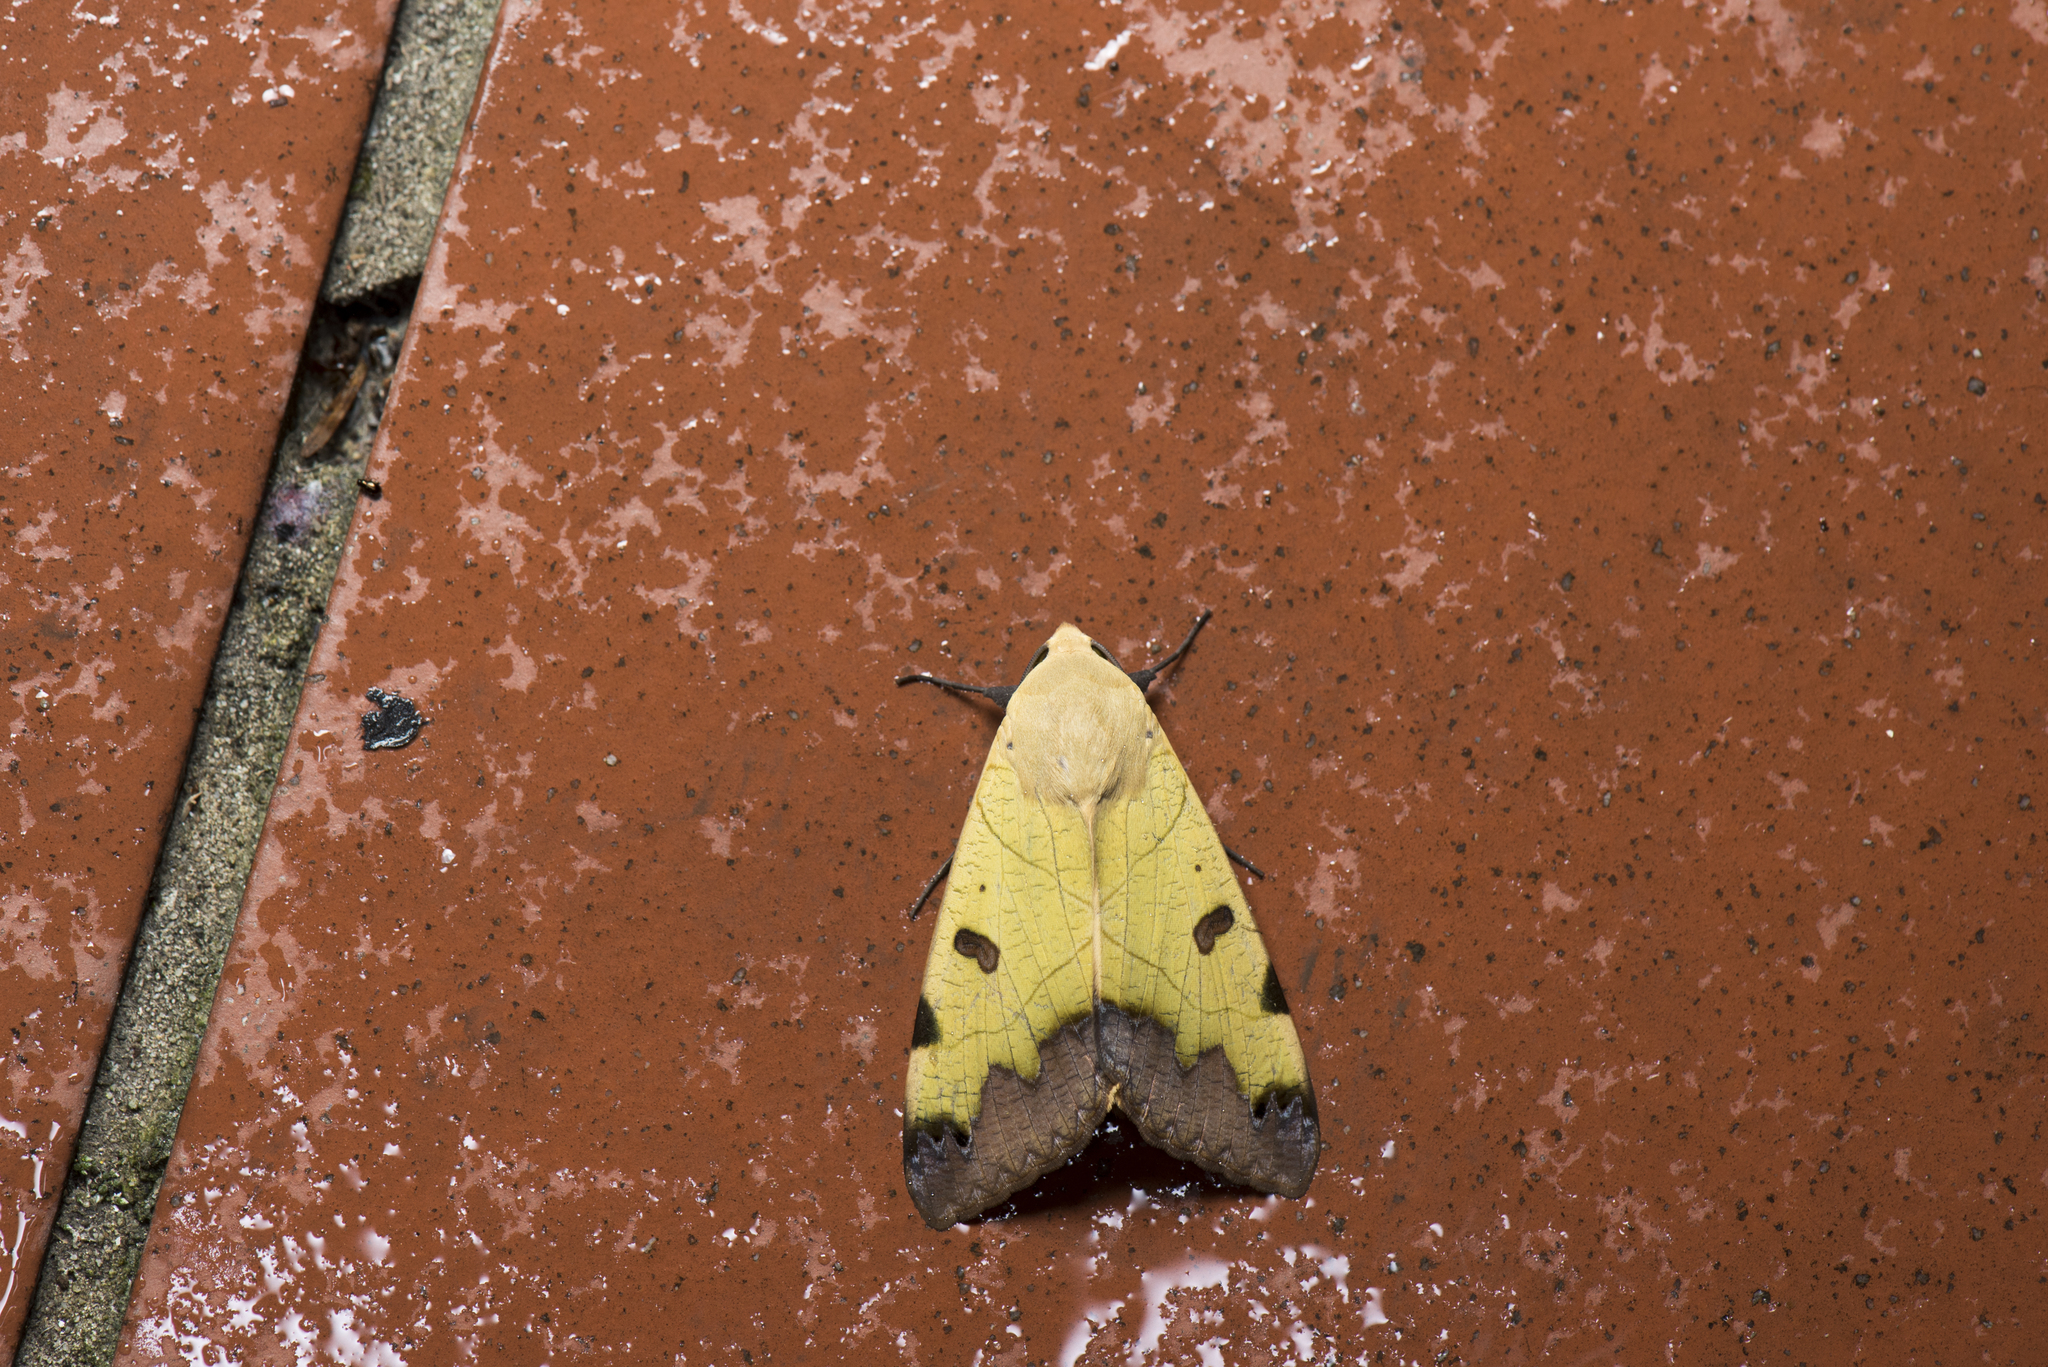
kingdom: Animalia
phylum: Arthropoda
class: Insecta
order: Lepidoptera
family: Erebidae
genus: Ophiusa
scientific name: Ophiusa tirhaca
